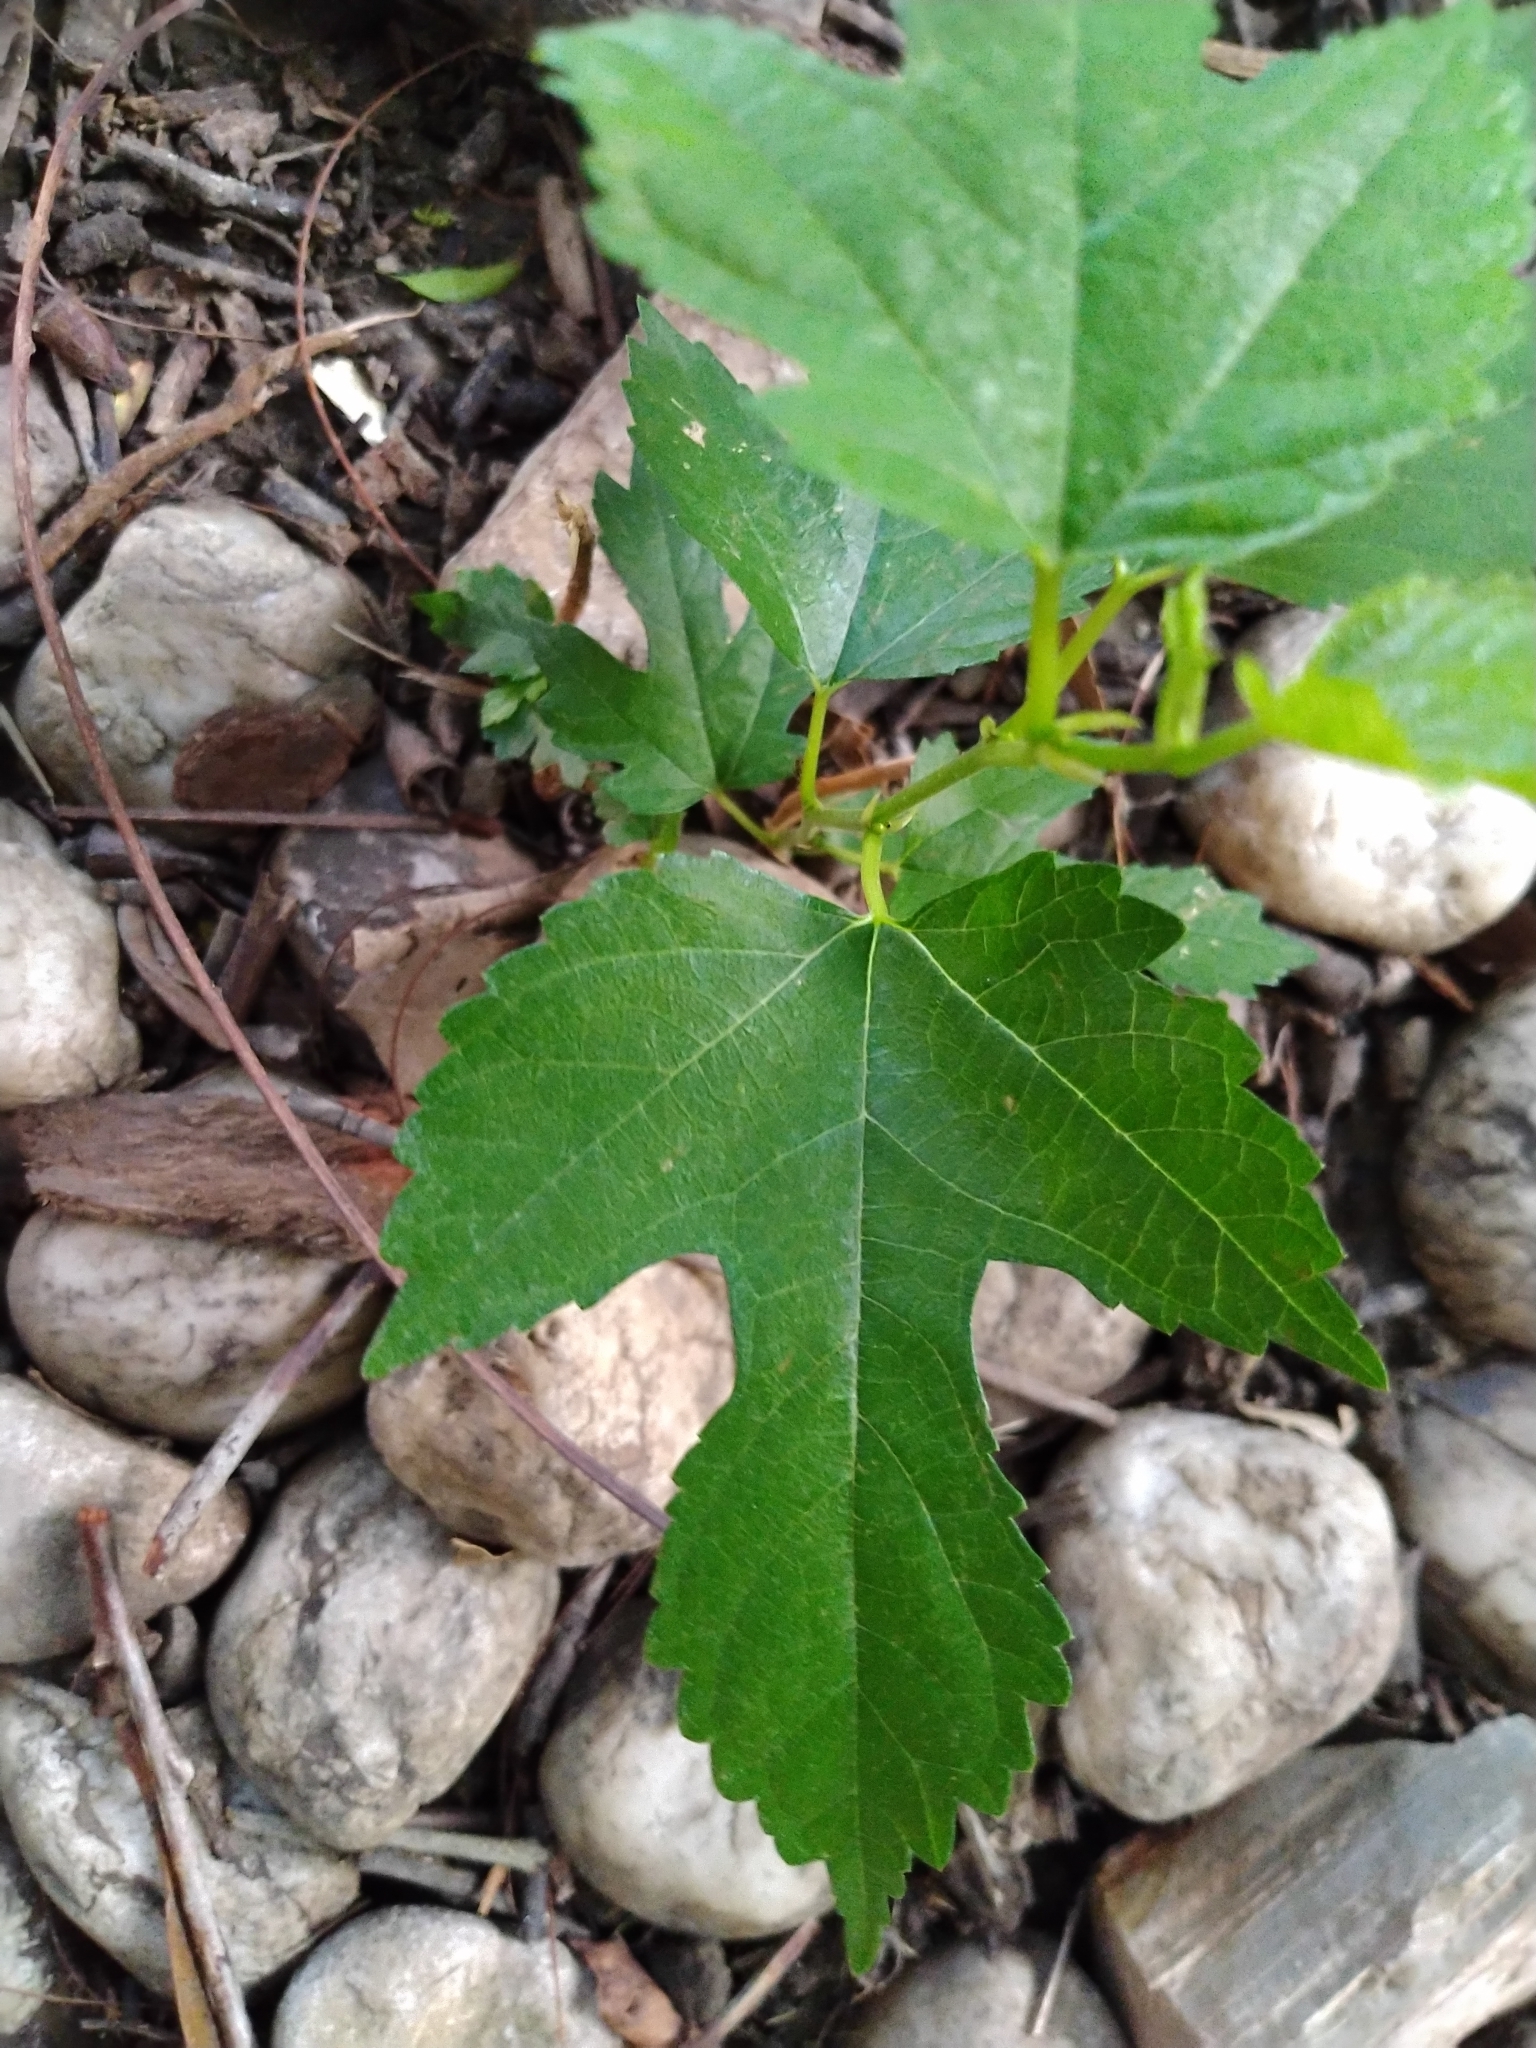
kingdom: Plantae
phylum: Tracheophyta
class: Magnoliopsida
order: Rosales
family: Moraceae
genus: Morus
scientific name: Morus indica
